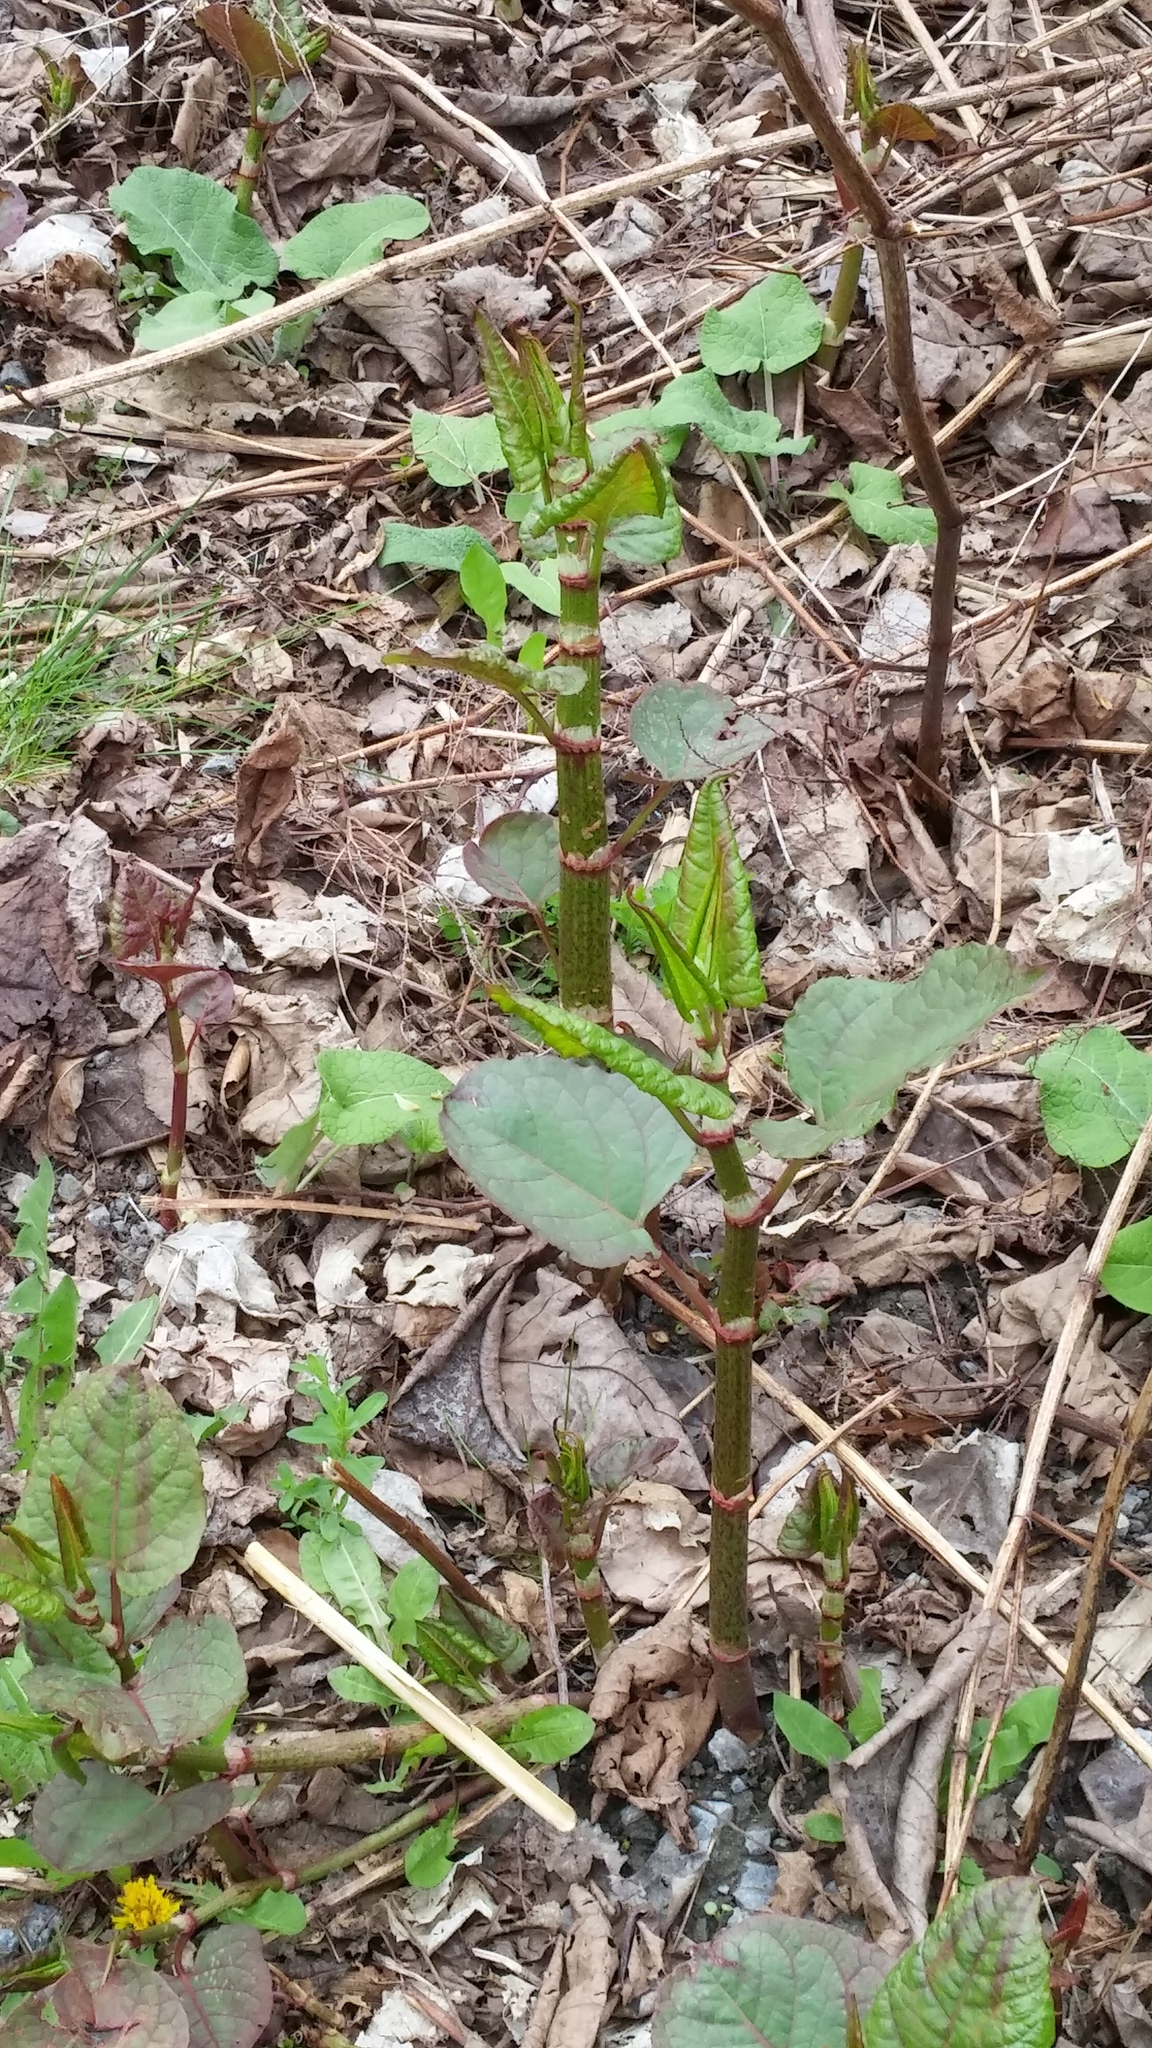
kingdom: Plantae
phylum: Tracheophyta
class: Magnoliopsida
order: Caryophyllales
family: Polygonaceae
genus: Reynoutria
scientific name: Reynoutria japonica
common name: Japanese knotweed
